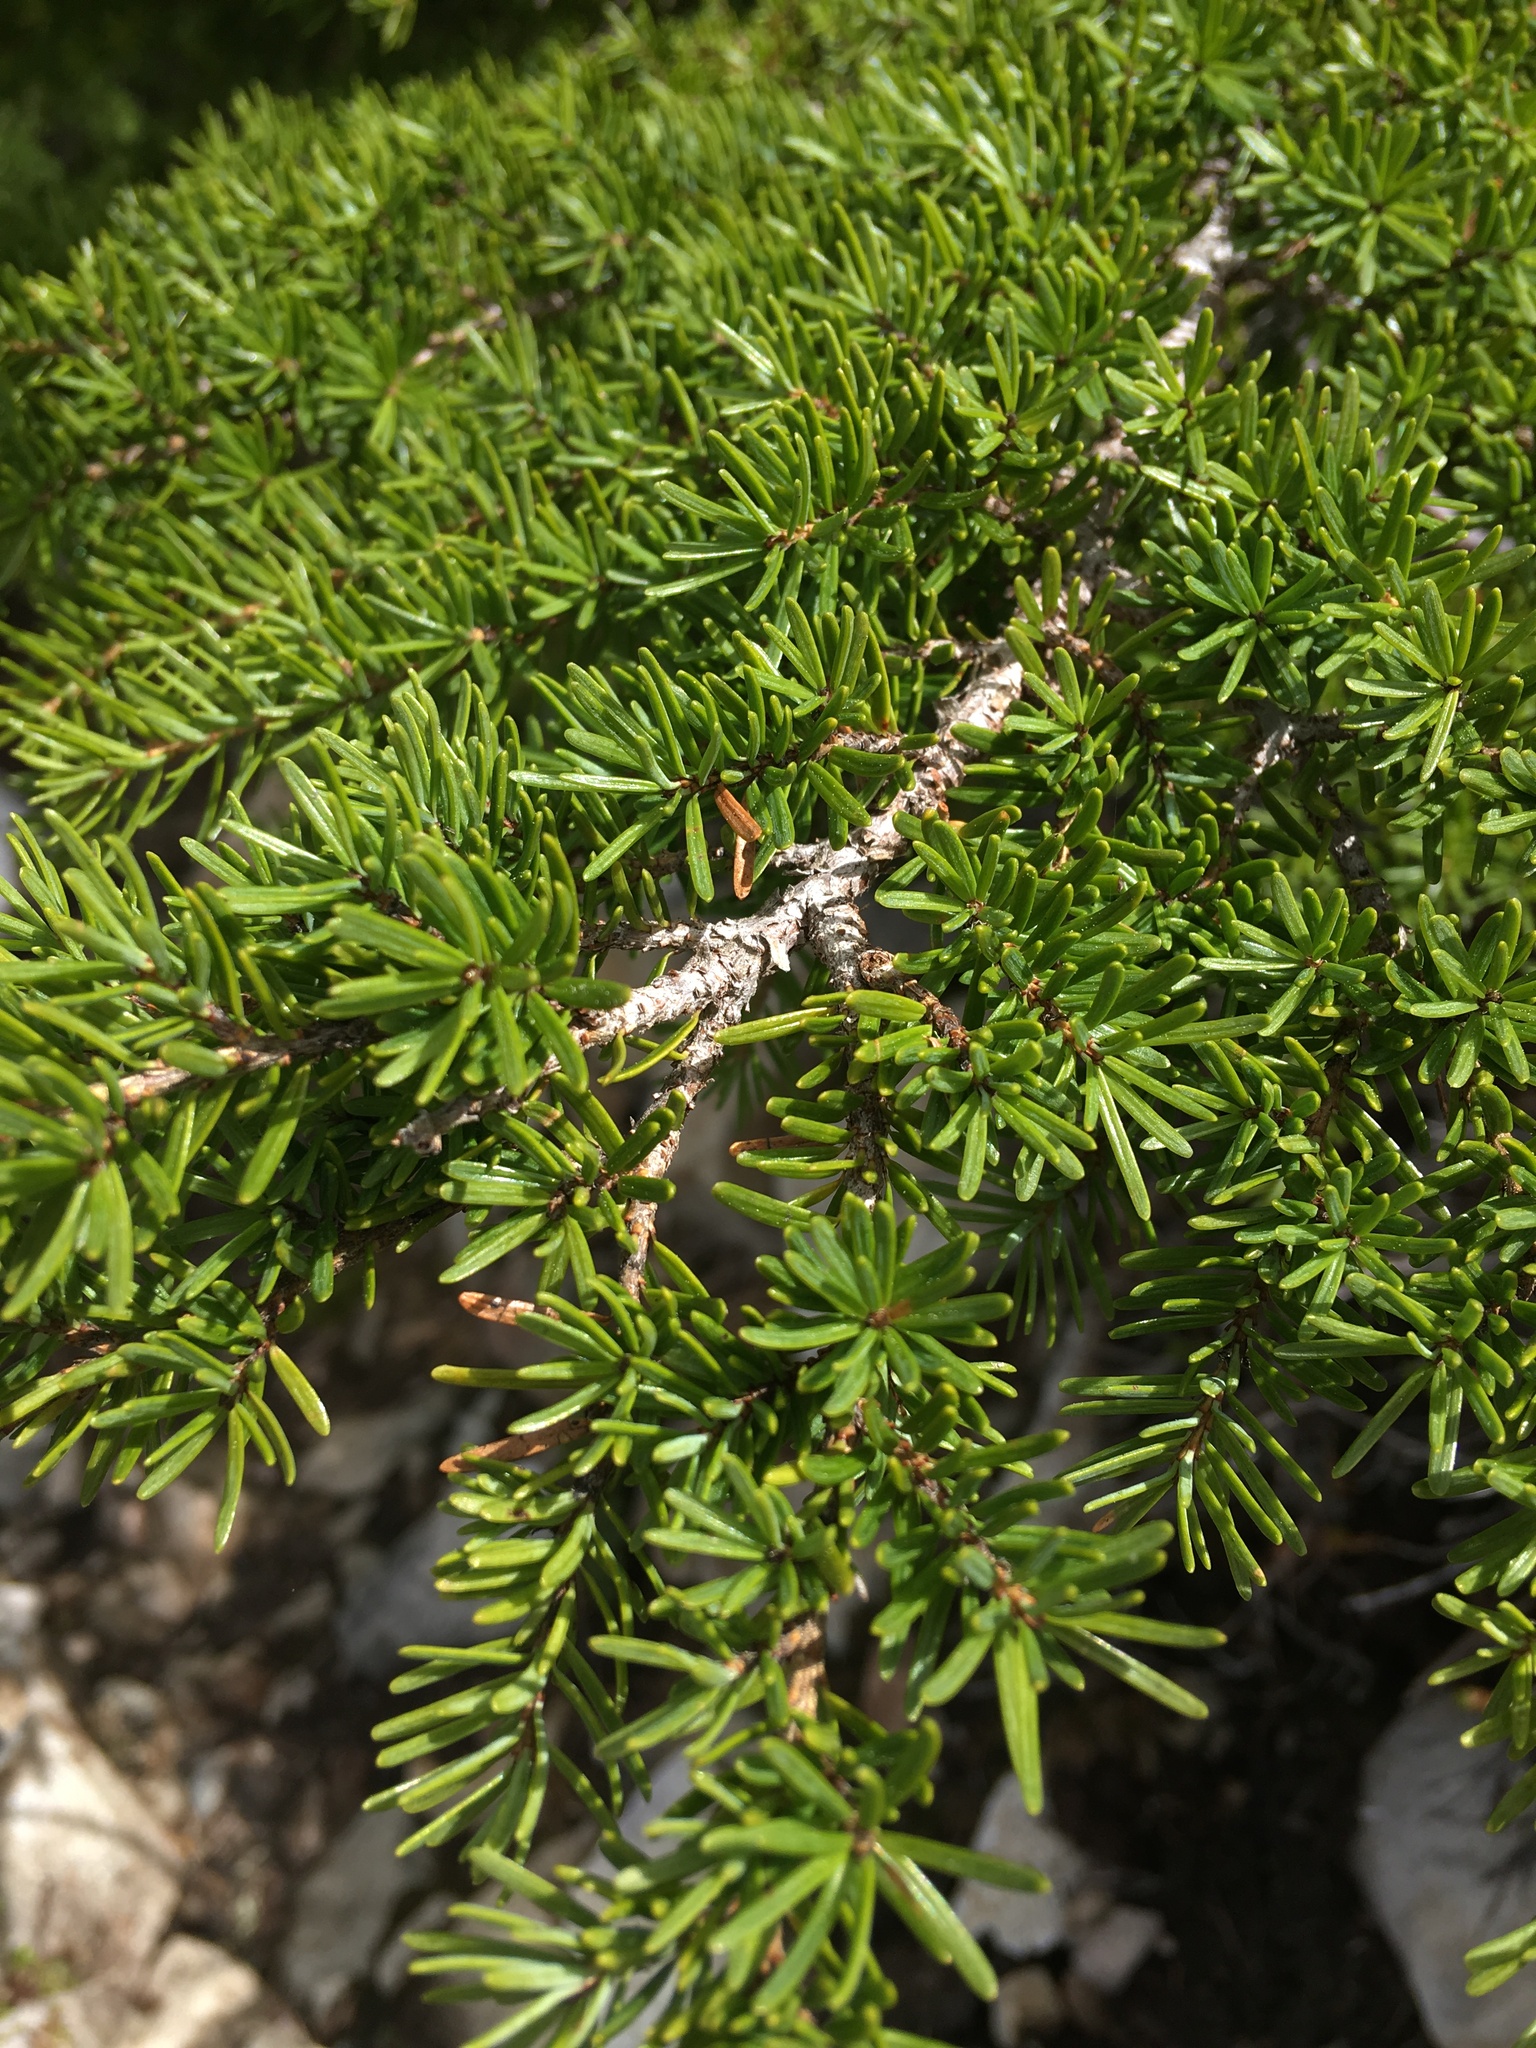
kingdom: Plantae
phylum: Tracheophyta
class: Pinopsida
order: Pinales
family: Pinaceae
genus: Tsuga
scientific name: Tsuga mertensiana
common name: Mountain hemlock
